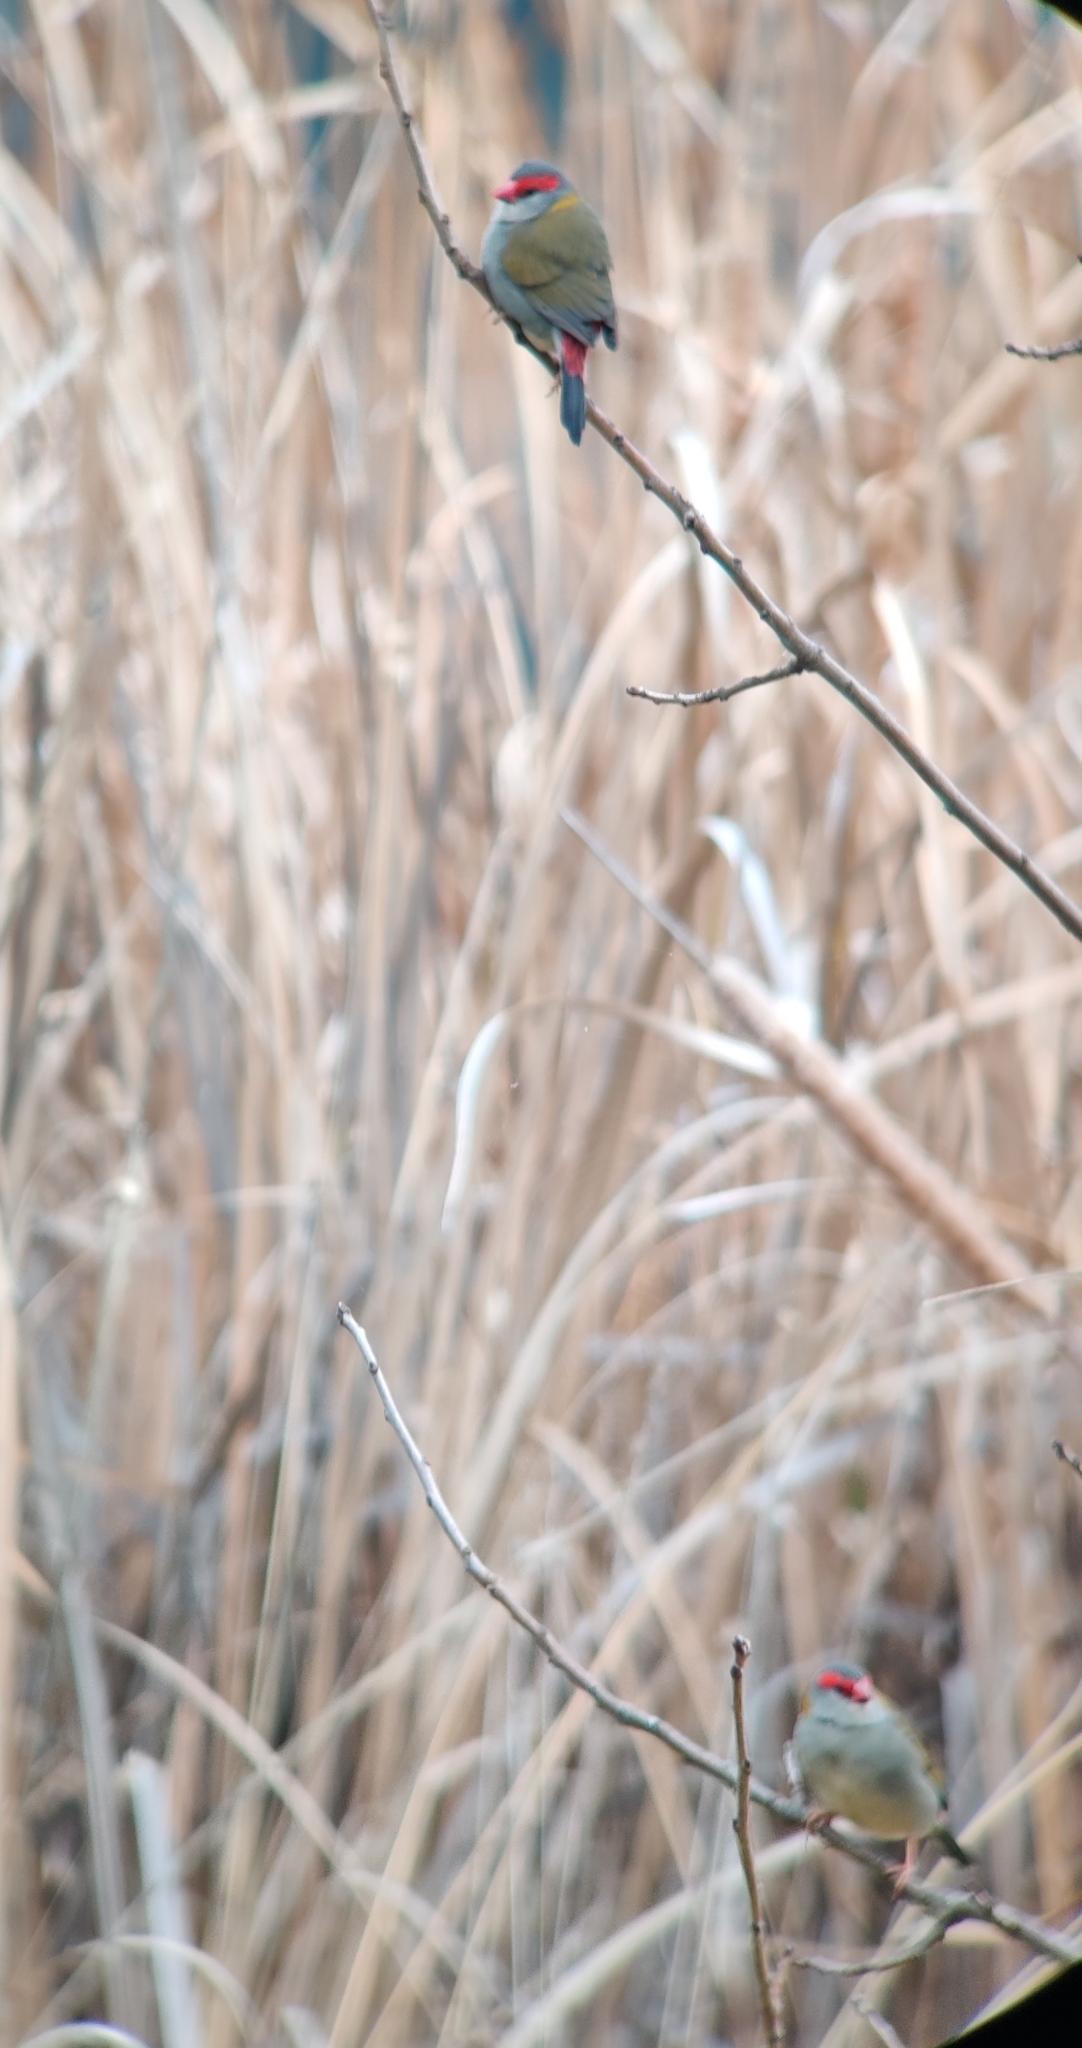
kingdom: Animalia
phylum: Chordata
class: Aves
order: Passeriformes
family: Estrildidae
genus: Neochmia
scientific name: Neochmia temporalis
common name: Red-browed finch
